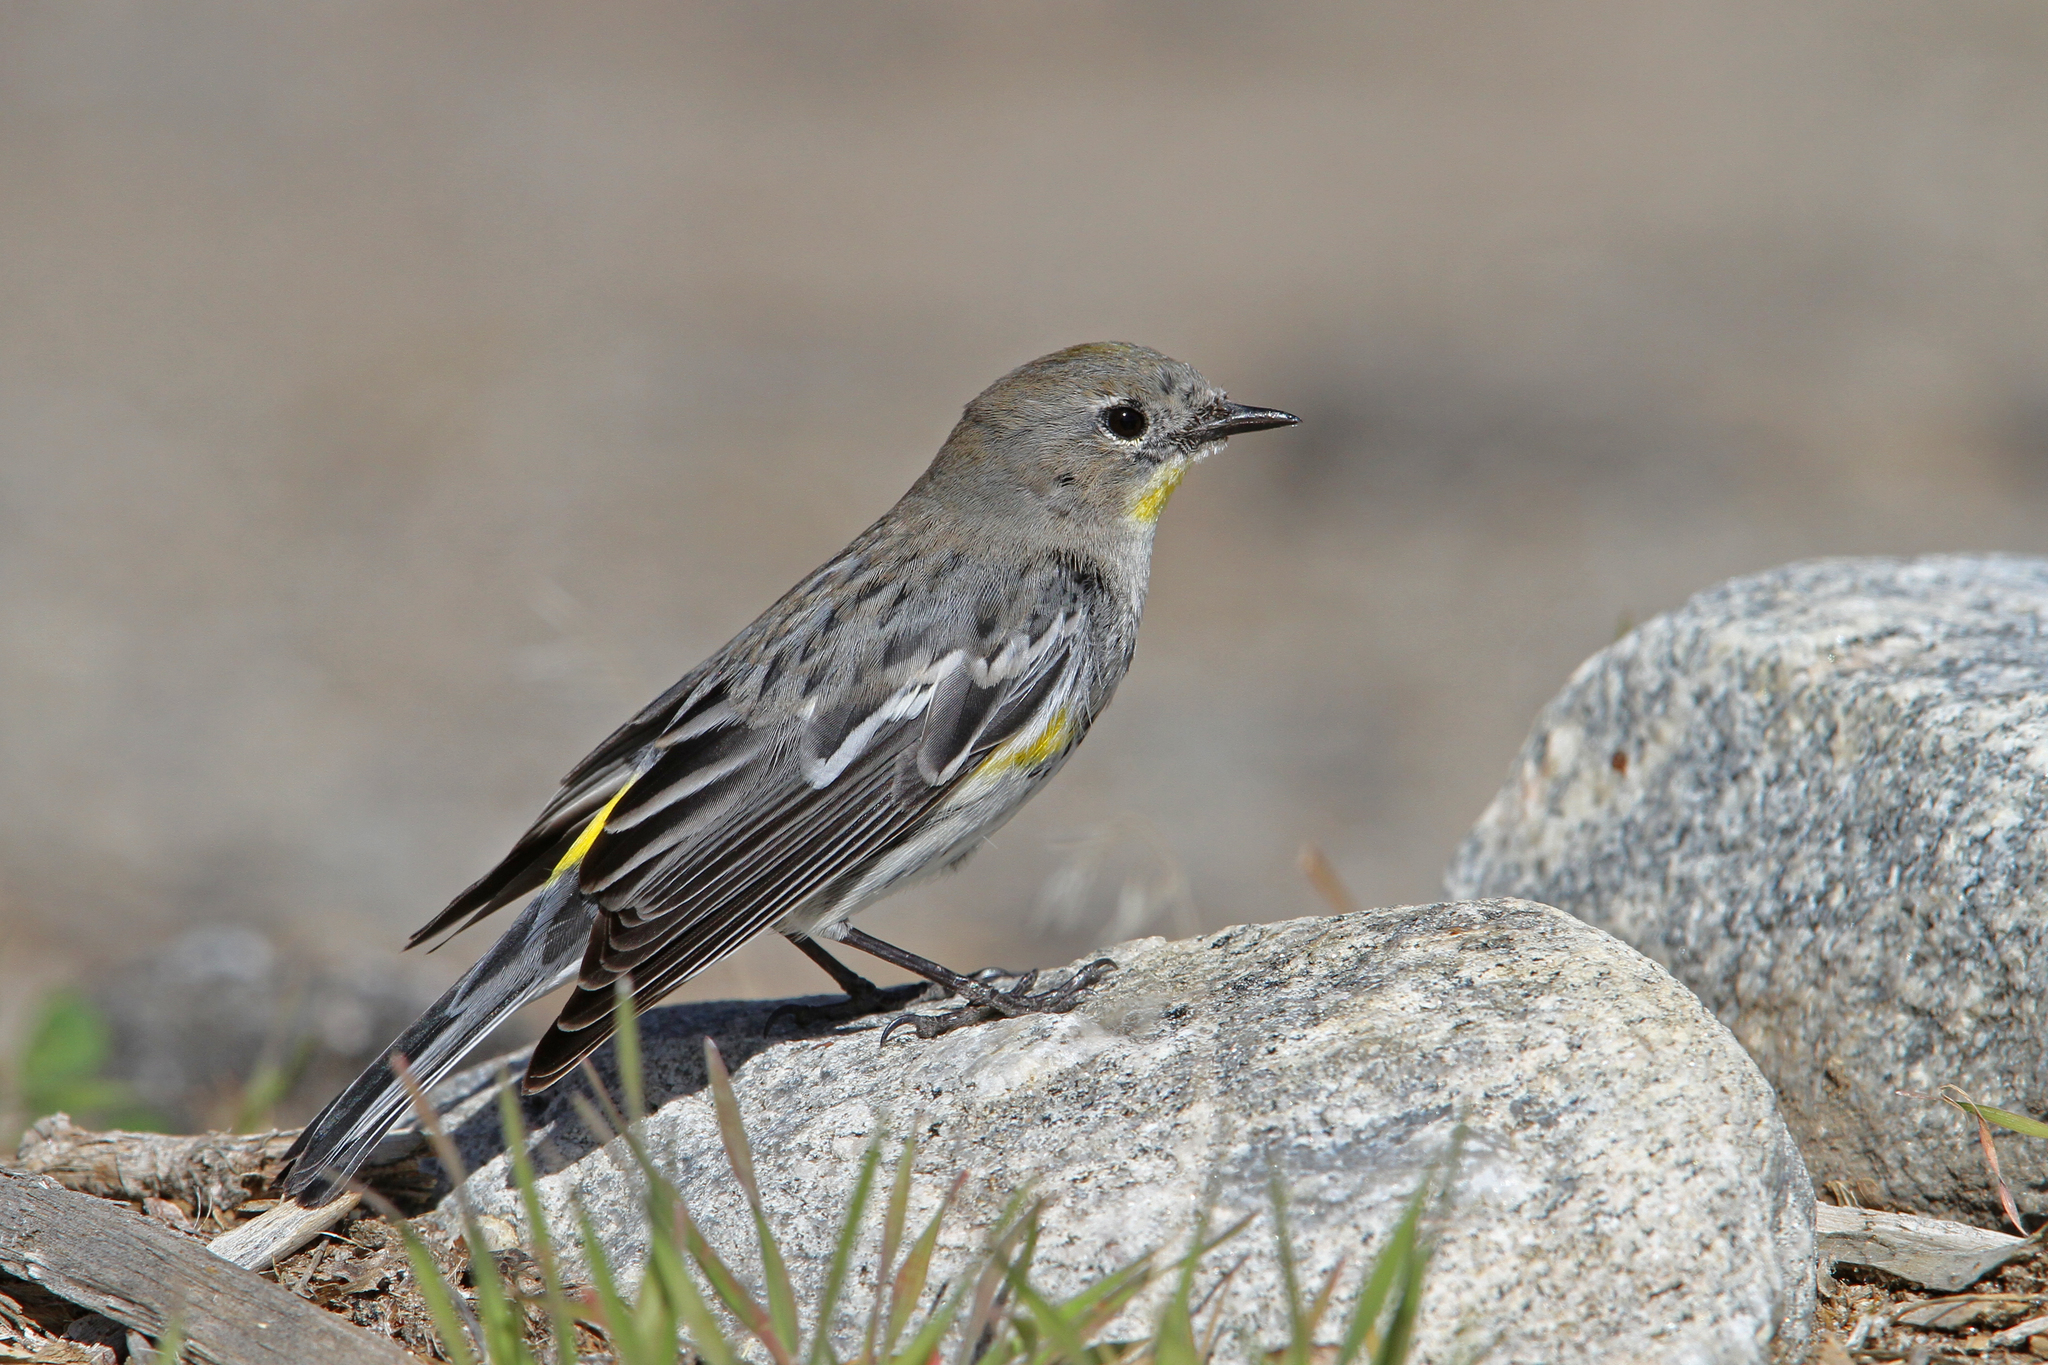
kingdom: Animalia
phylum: Chordata
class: Aves
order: Passeriformes
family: Parulidae
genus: Setophaga
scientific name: Setophaga coronata
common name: Myrtle warbler
